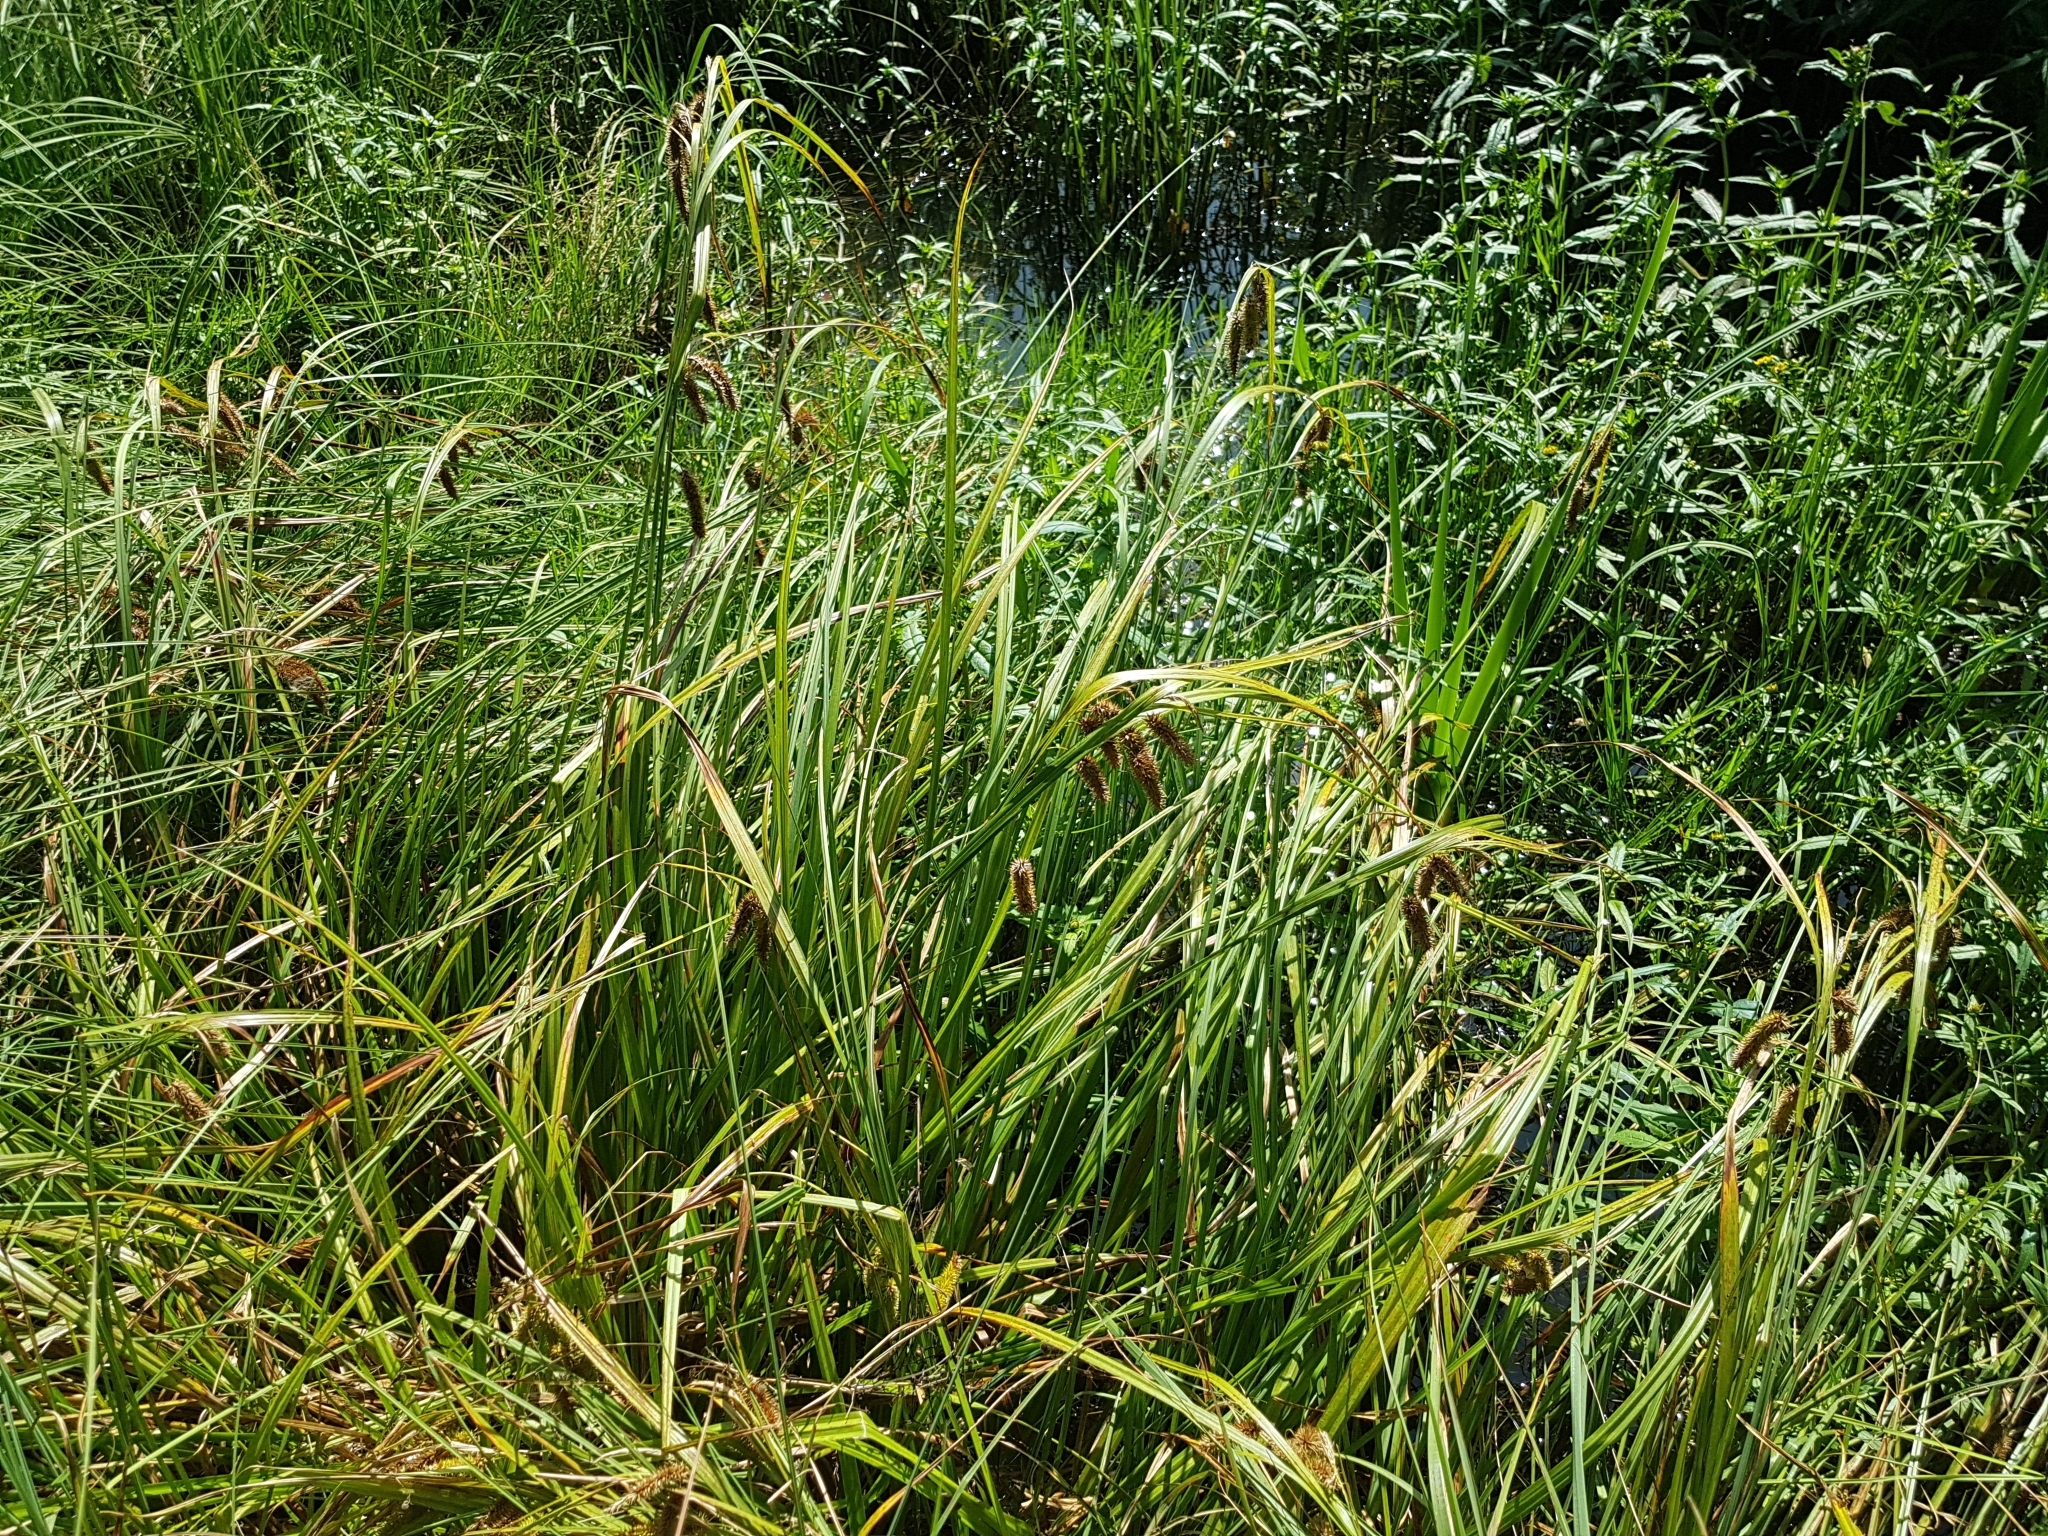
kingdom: Plantae
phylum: Tracheophyta
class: Liliopsida
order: Poales
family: Cyperaceae
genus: Carex
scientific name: Carex pseudocyperus
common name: Cyperus sedge
